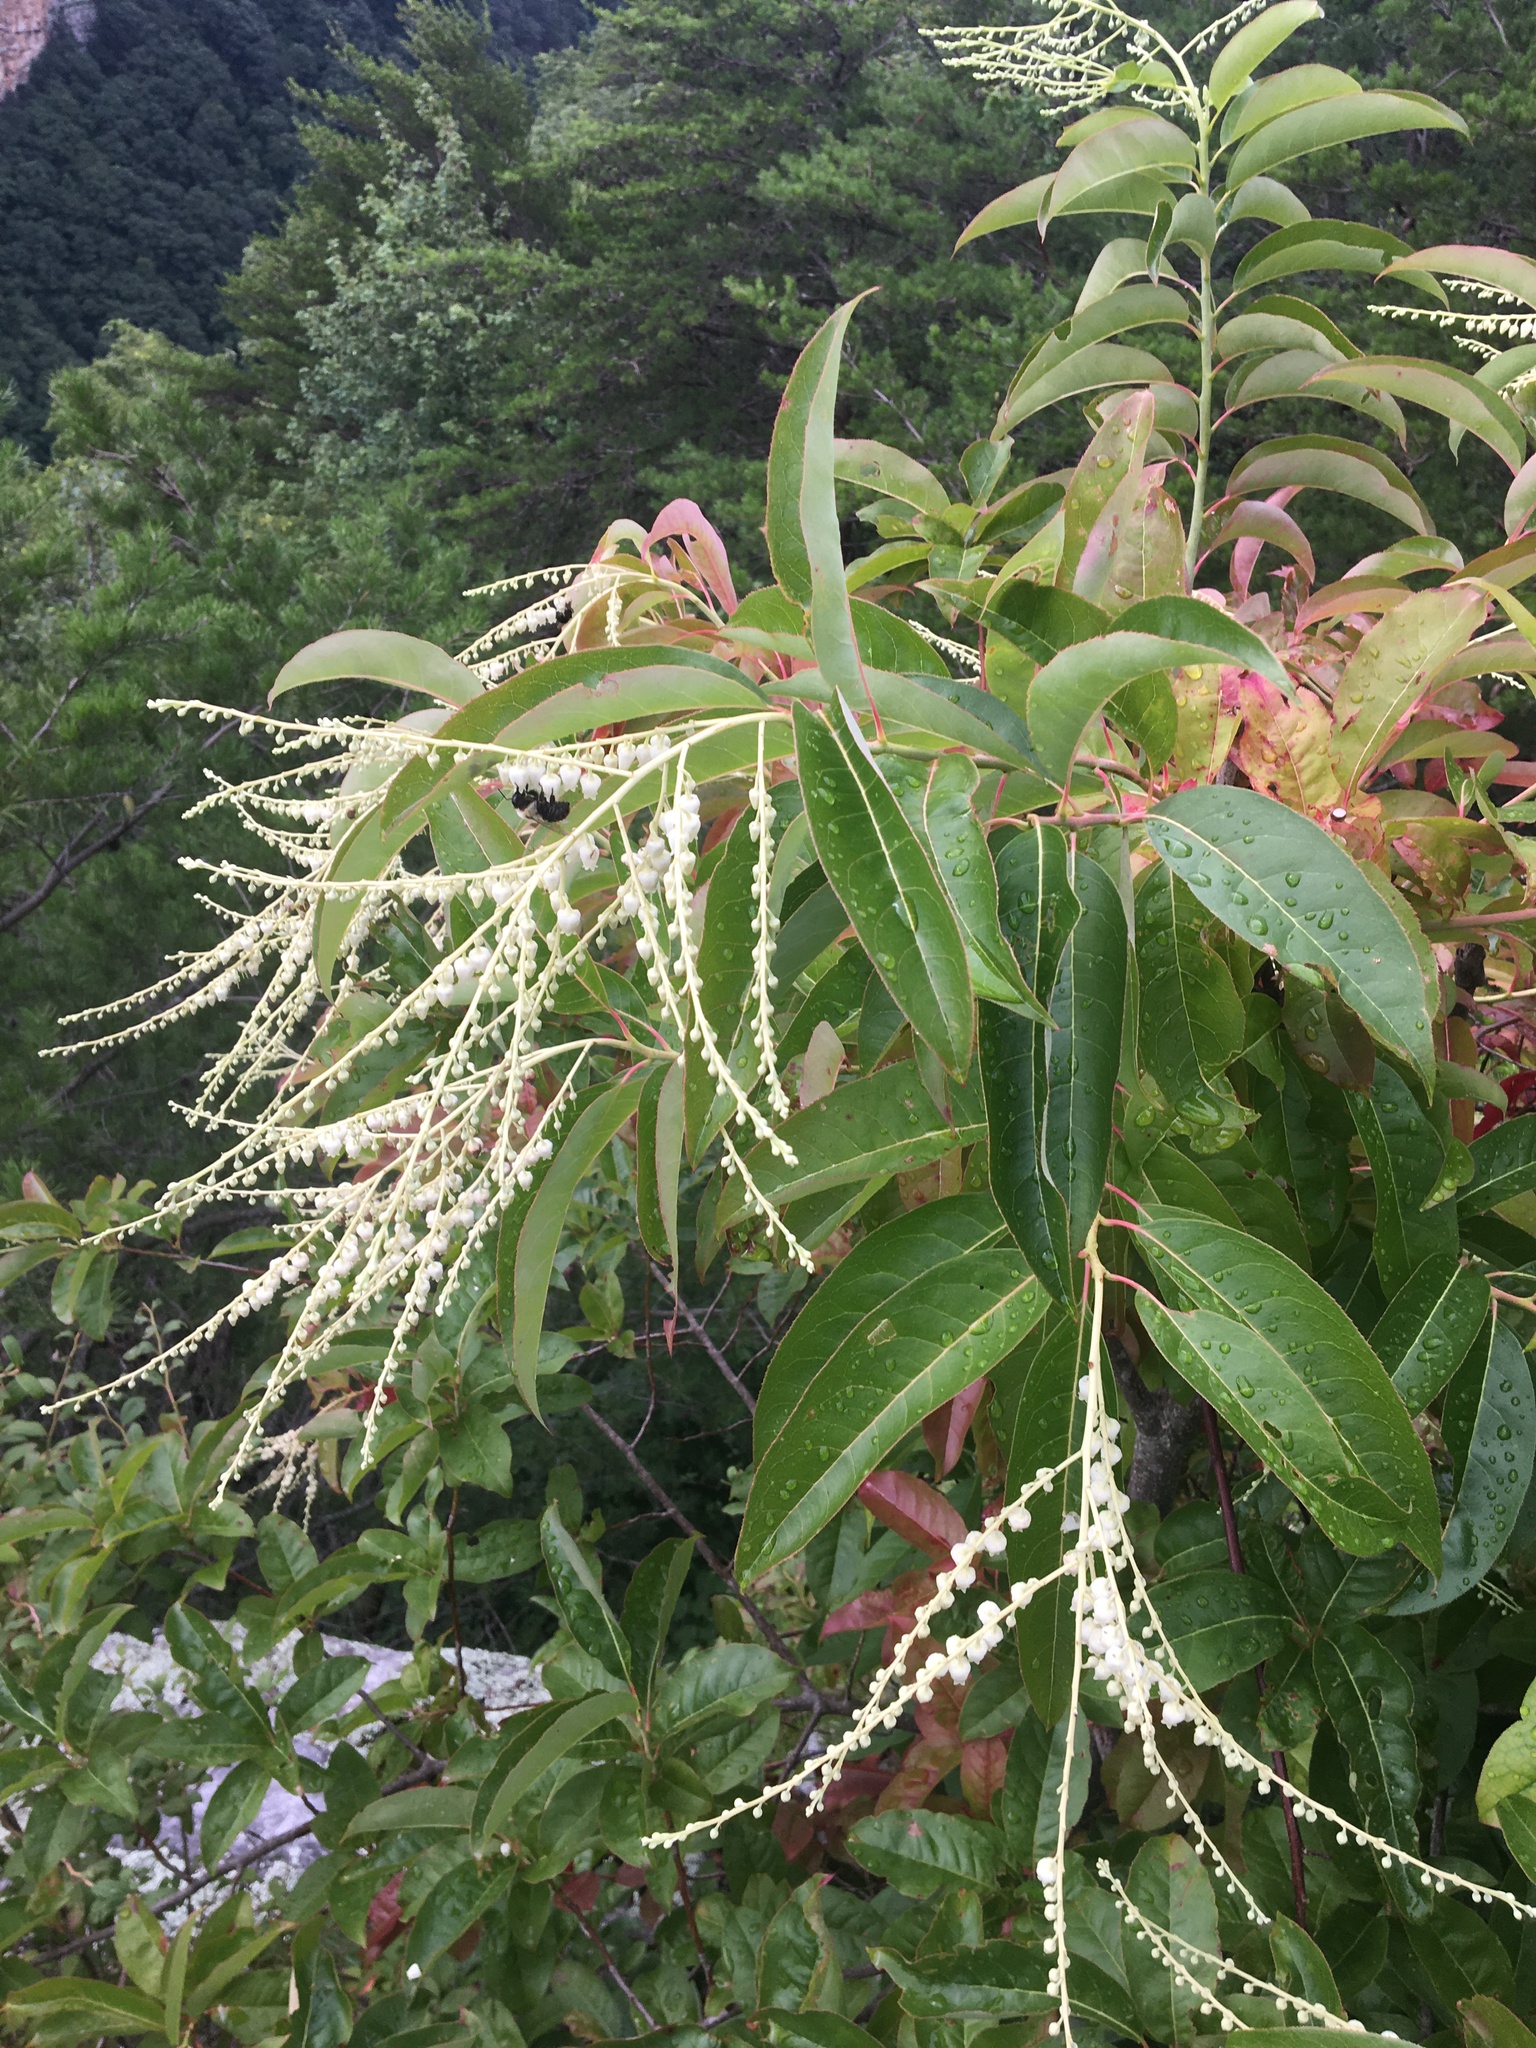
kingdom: Plantae
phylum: Tracheophyta
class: Magnoliopsida
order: Ericales
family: Ericaceae
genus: Oxydendrum
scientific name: Oxydendrum arboreum
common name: Sourwood
